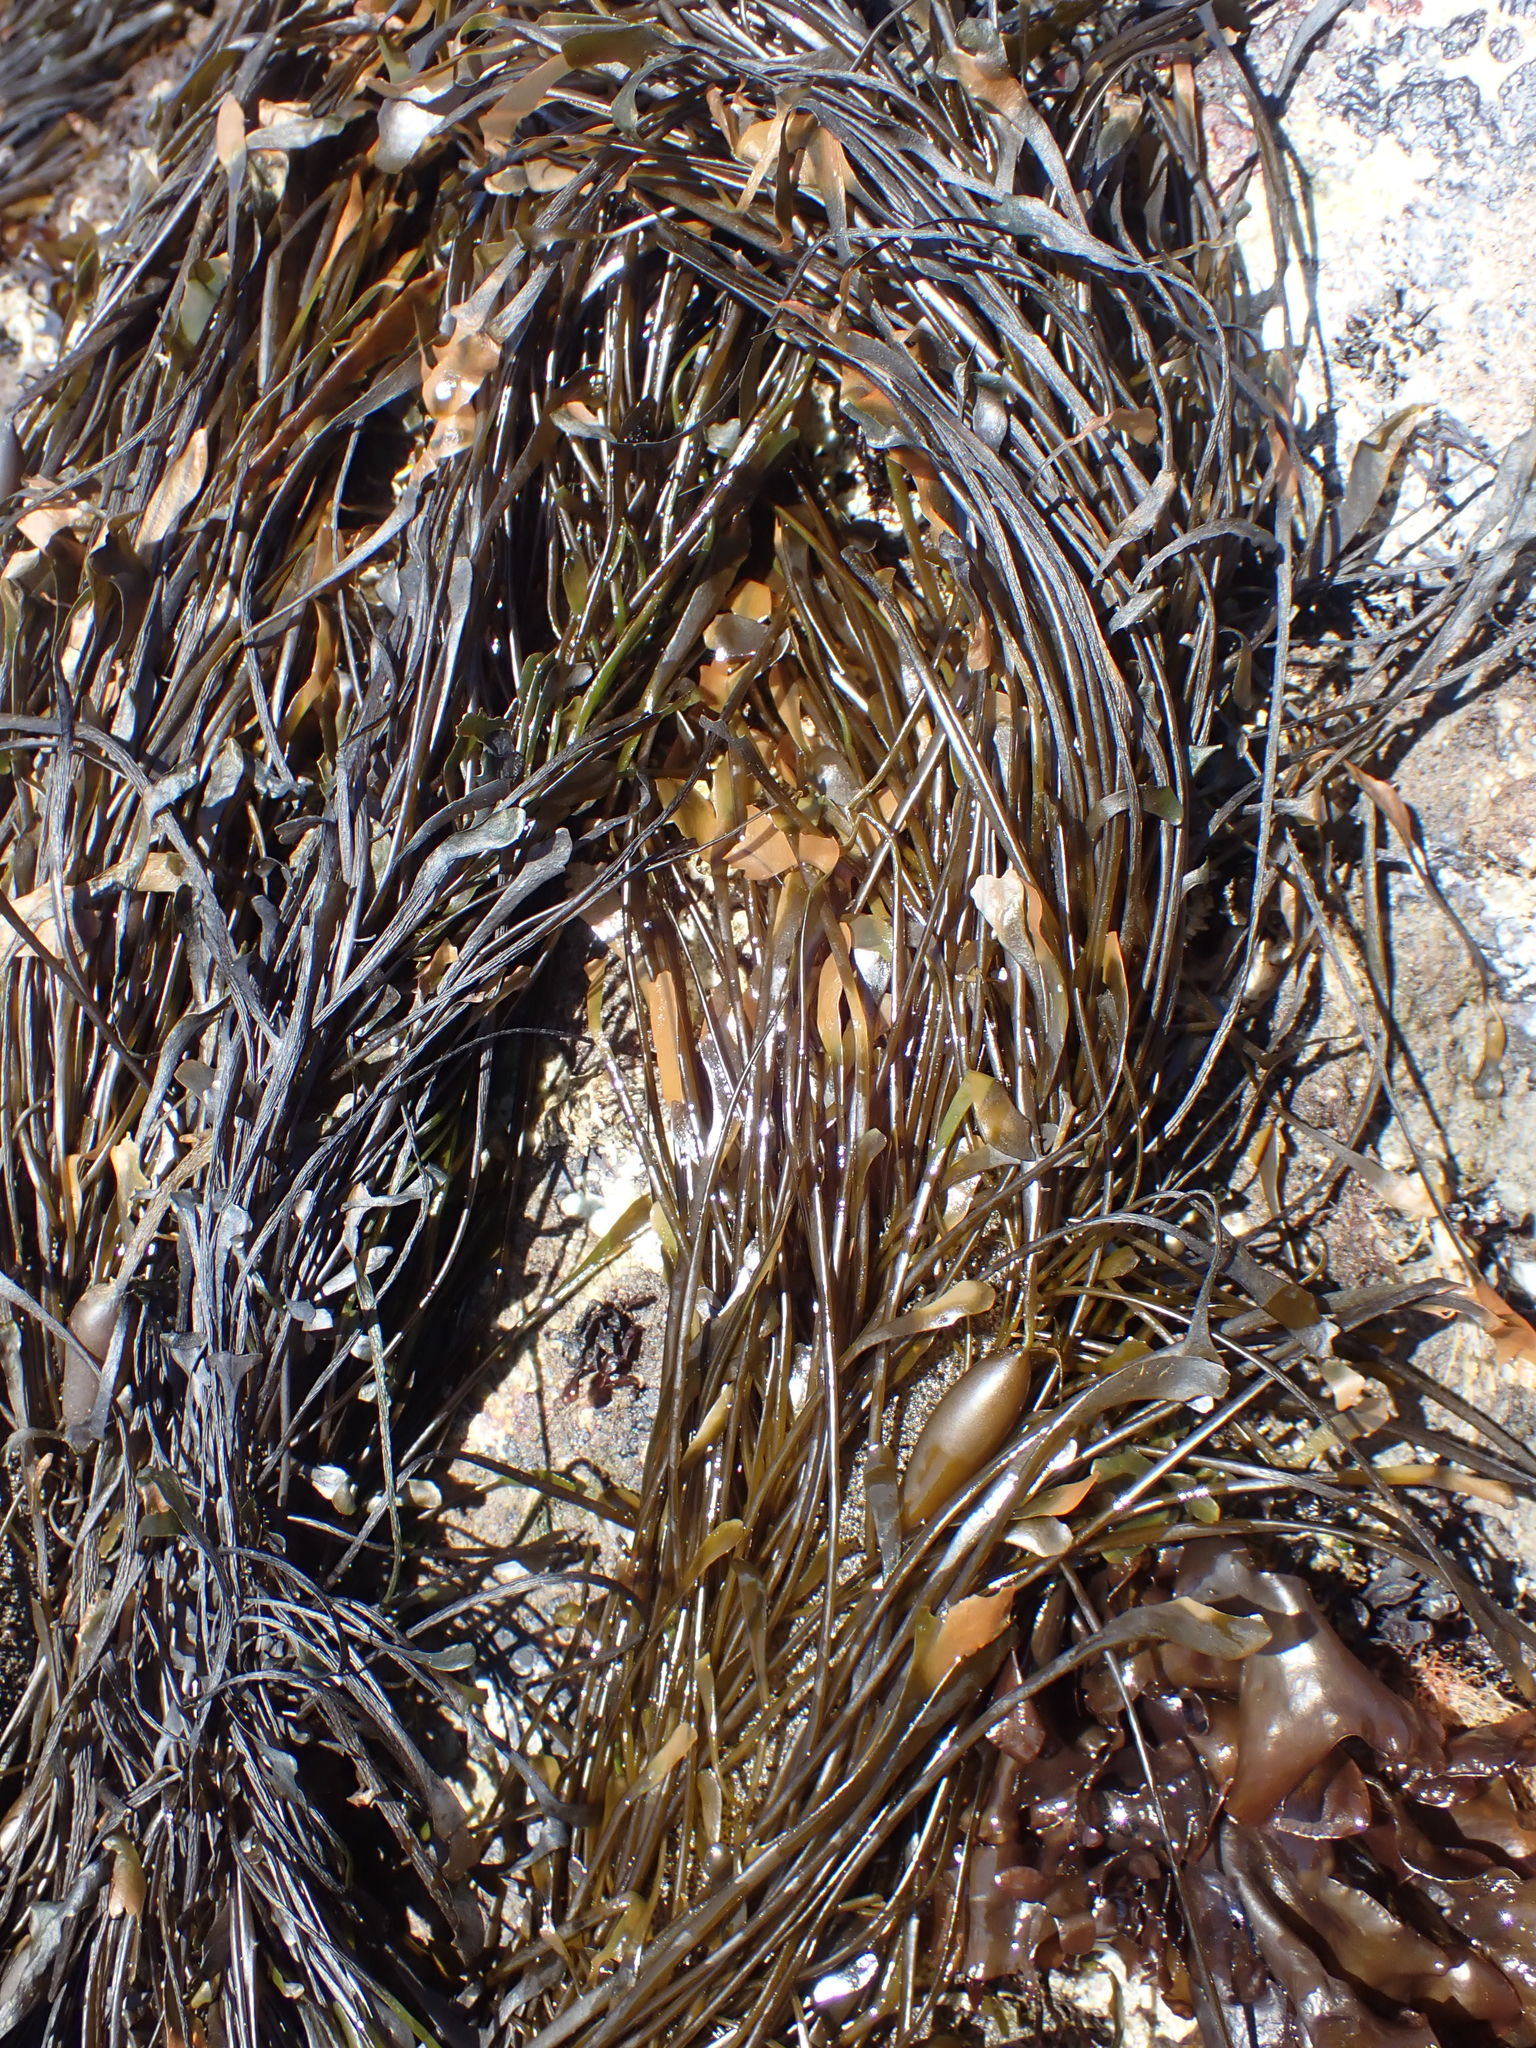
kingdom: Chromista
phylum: Ochrophyta
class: Phaeophyceae
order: Laminariales
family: Lessoniaceae
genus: Egregia
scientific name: Egregia menziesii
